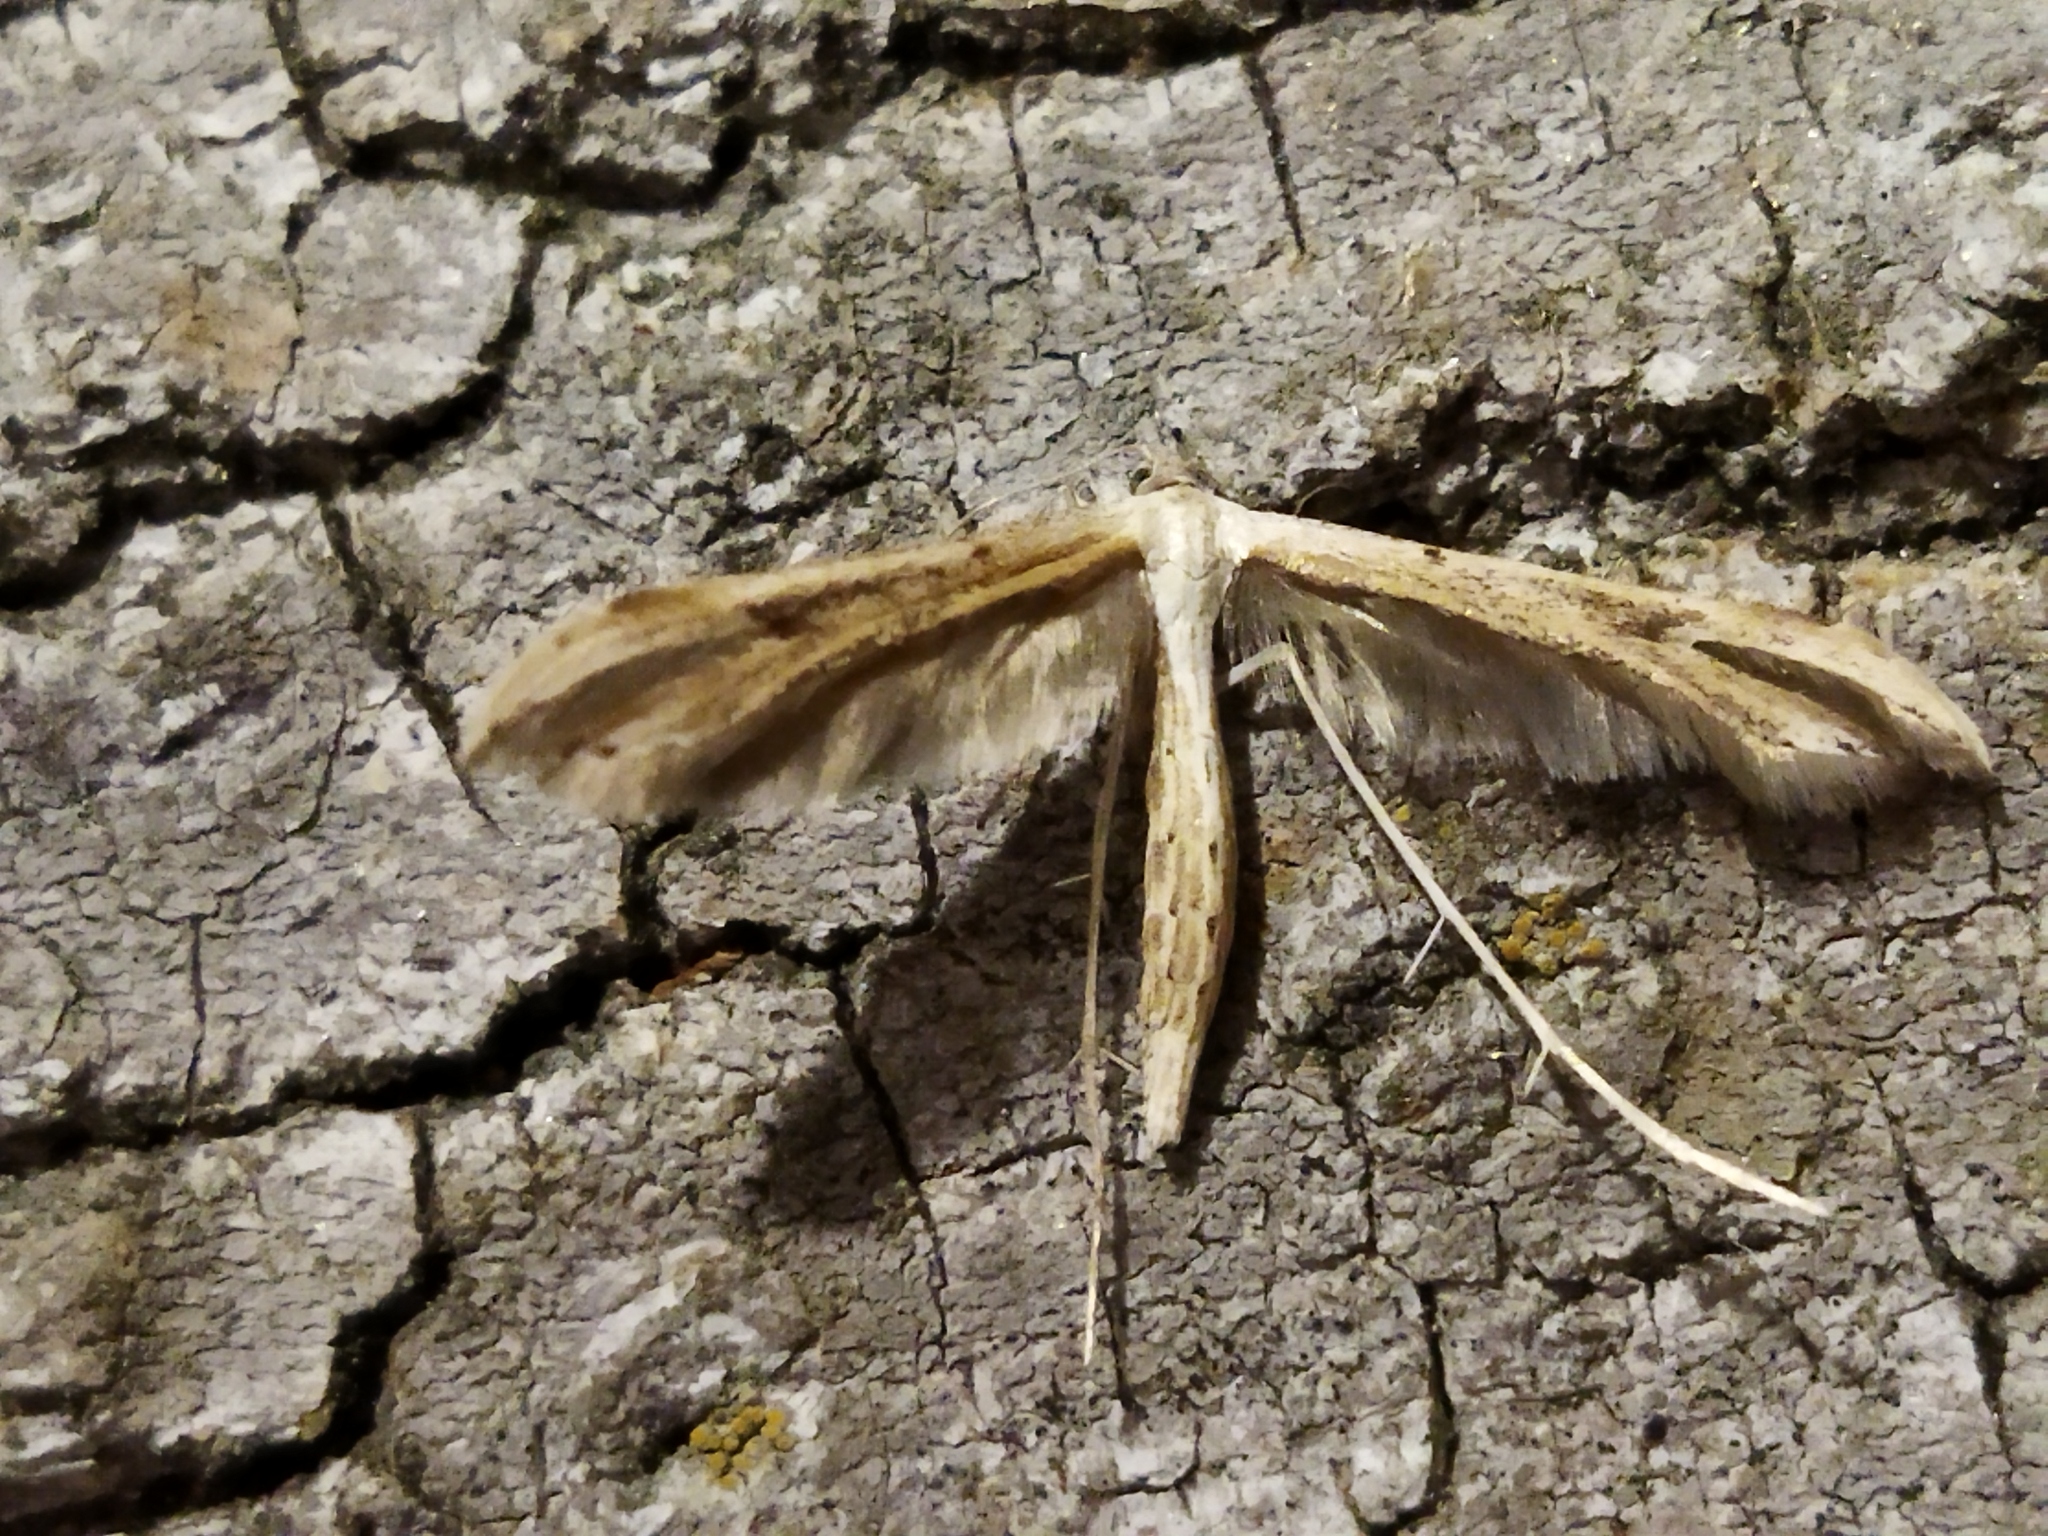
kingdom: Animalia
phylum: Arthropoda
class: Insecta
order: Lepidoptera
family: Pterophoridae
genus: Emmelina
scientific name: Emmelina monodactyla
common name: Common plume
